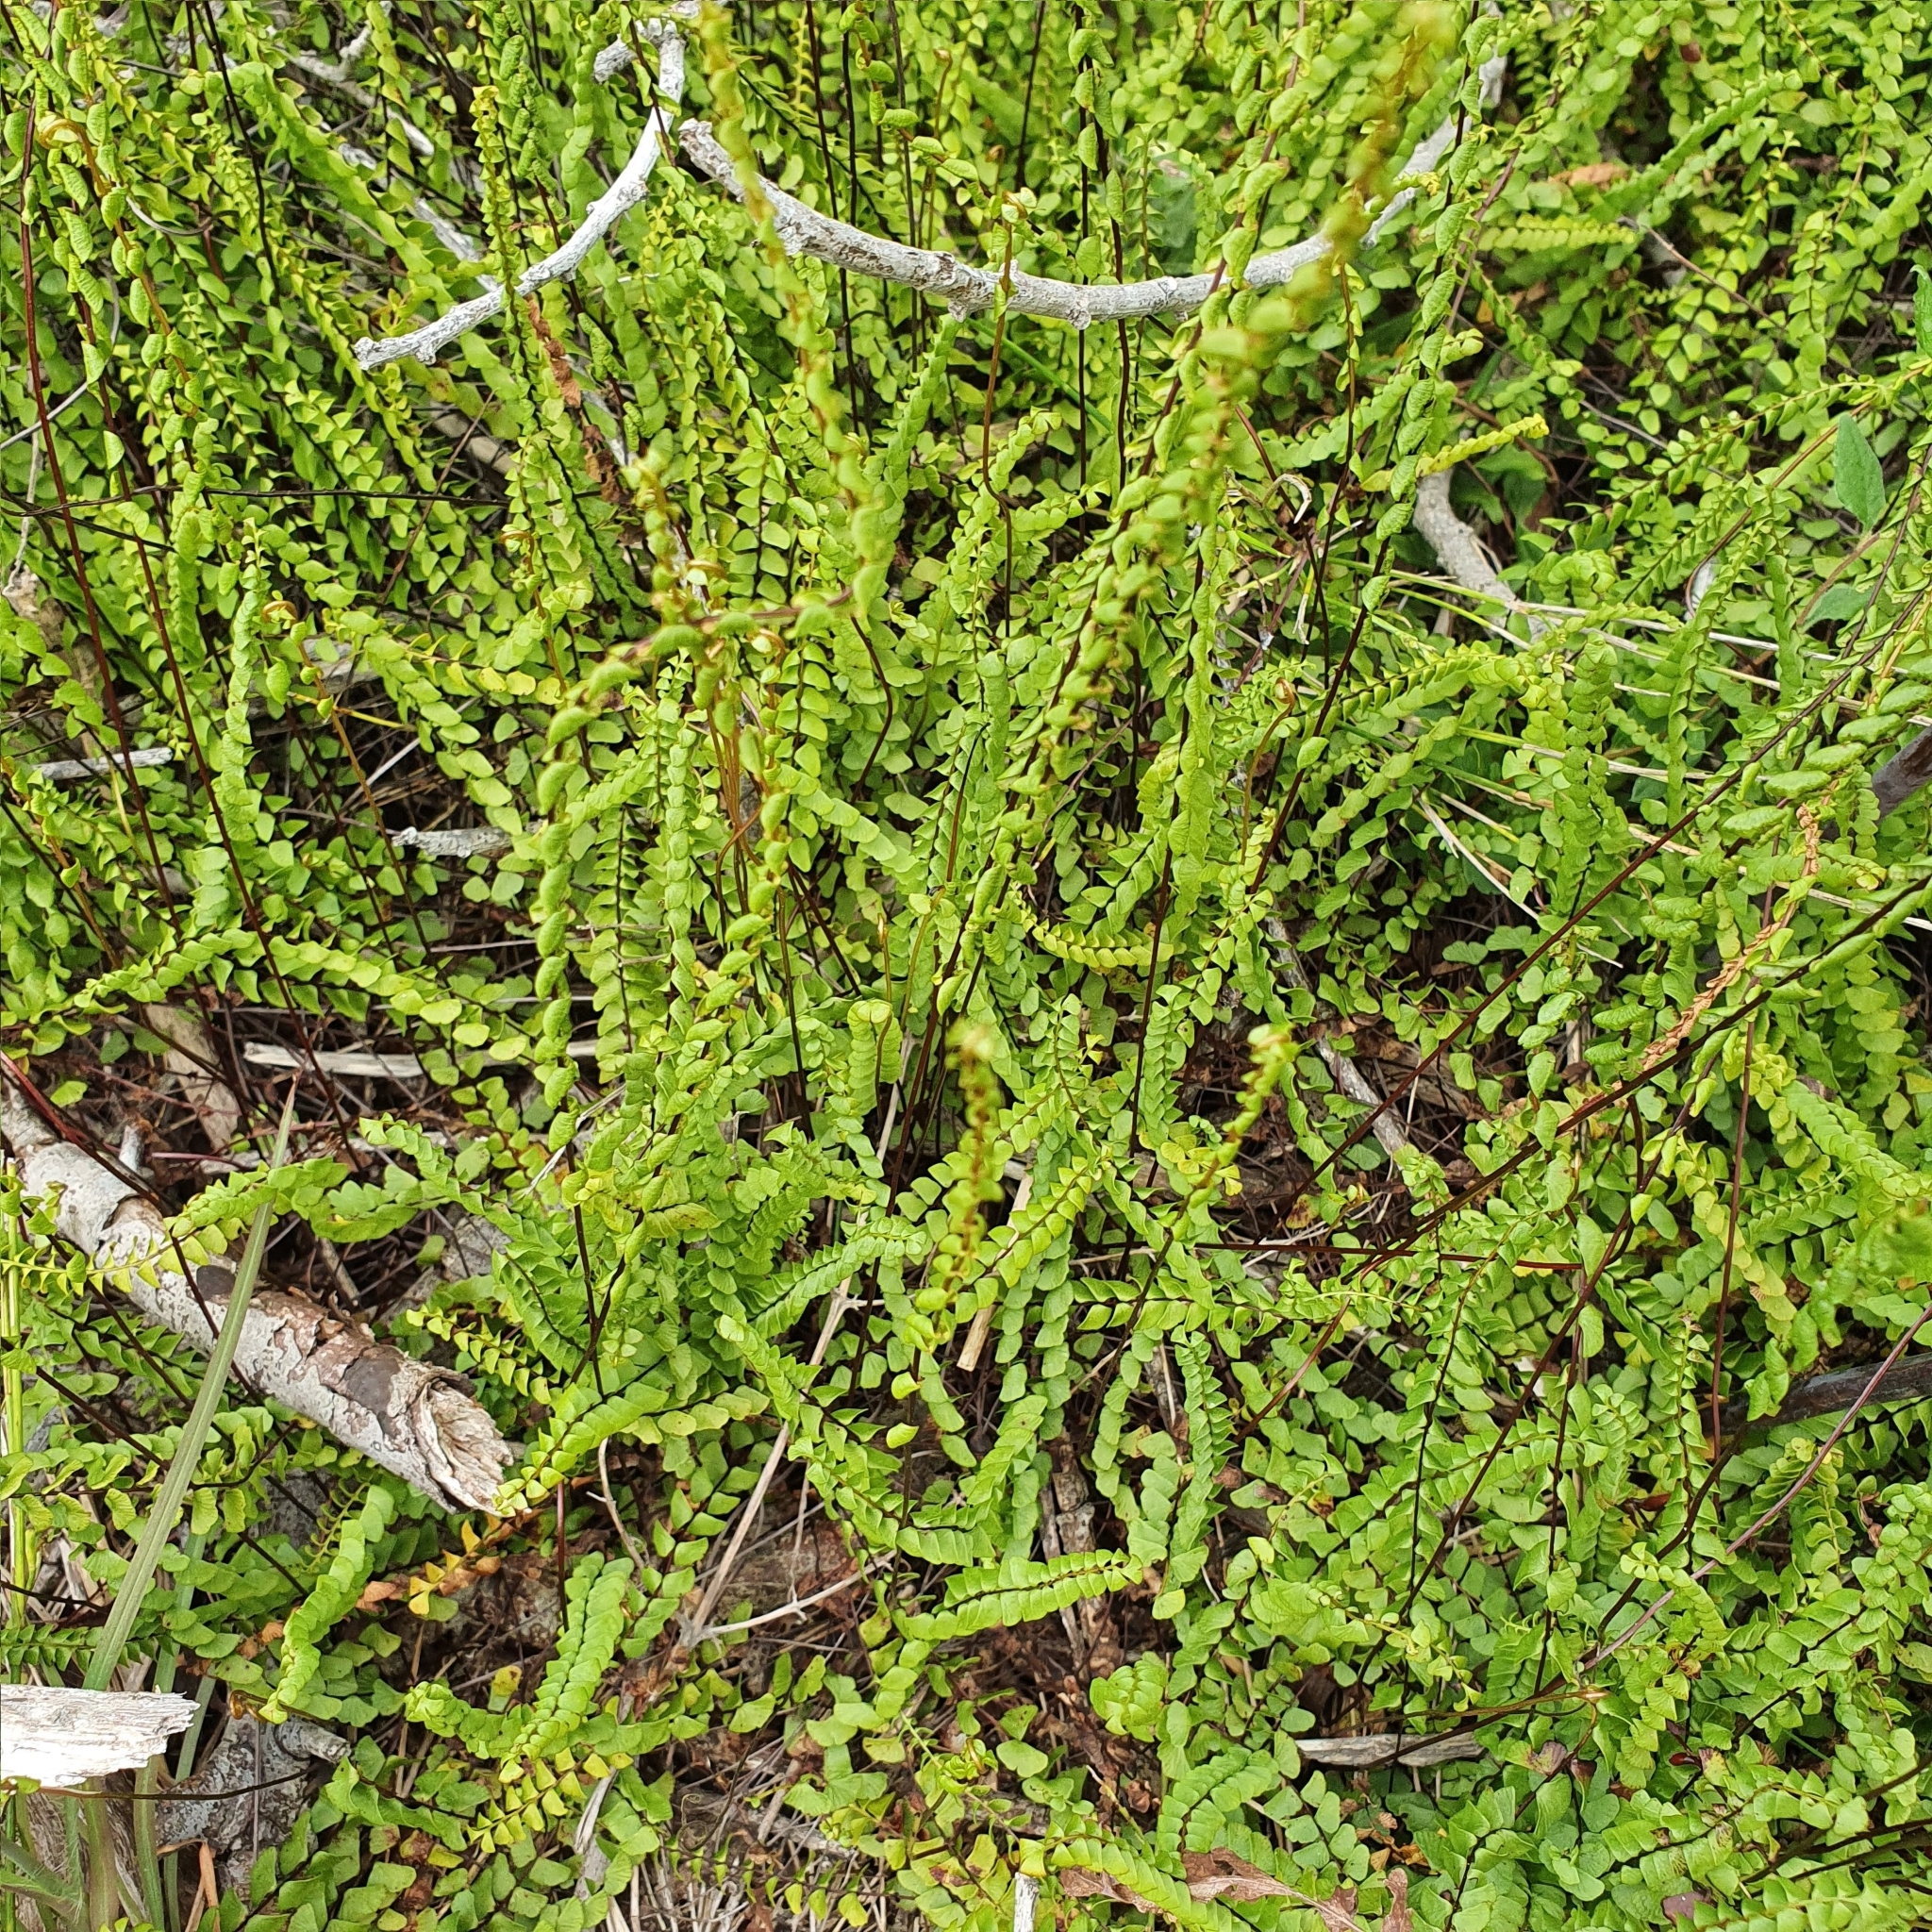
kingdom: Plantae
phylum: Tracheophyta
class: Polypodiopsida
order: Polypodiales
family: Lindsaeaceae
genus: Lindsaea
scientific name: Lindsaea linearis
